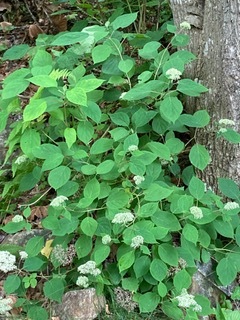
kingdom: Plantae
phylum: Tracheophyta
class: Magnoliopsida
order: Cornales
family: Hydrangeaceae
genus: Hydrangea
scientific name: Hydrangea arborescens
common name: Sevenbark
